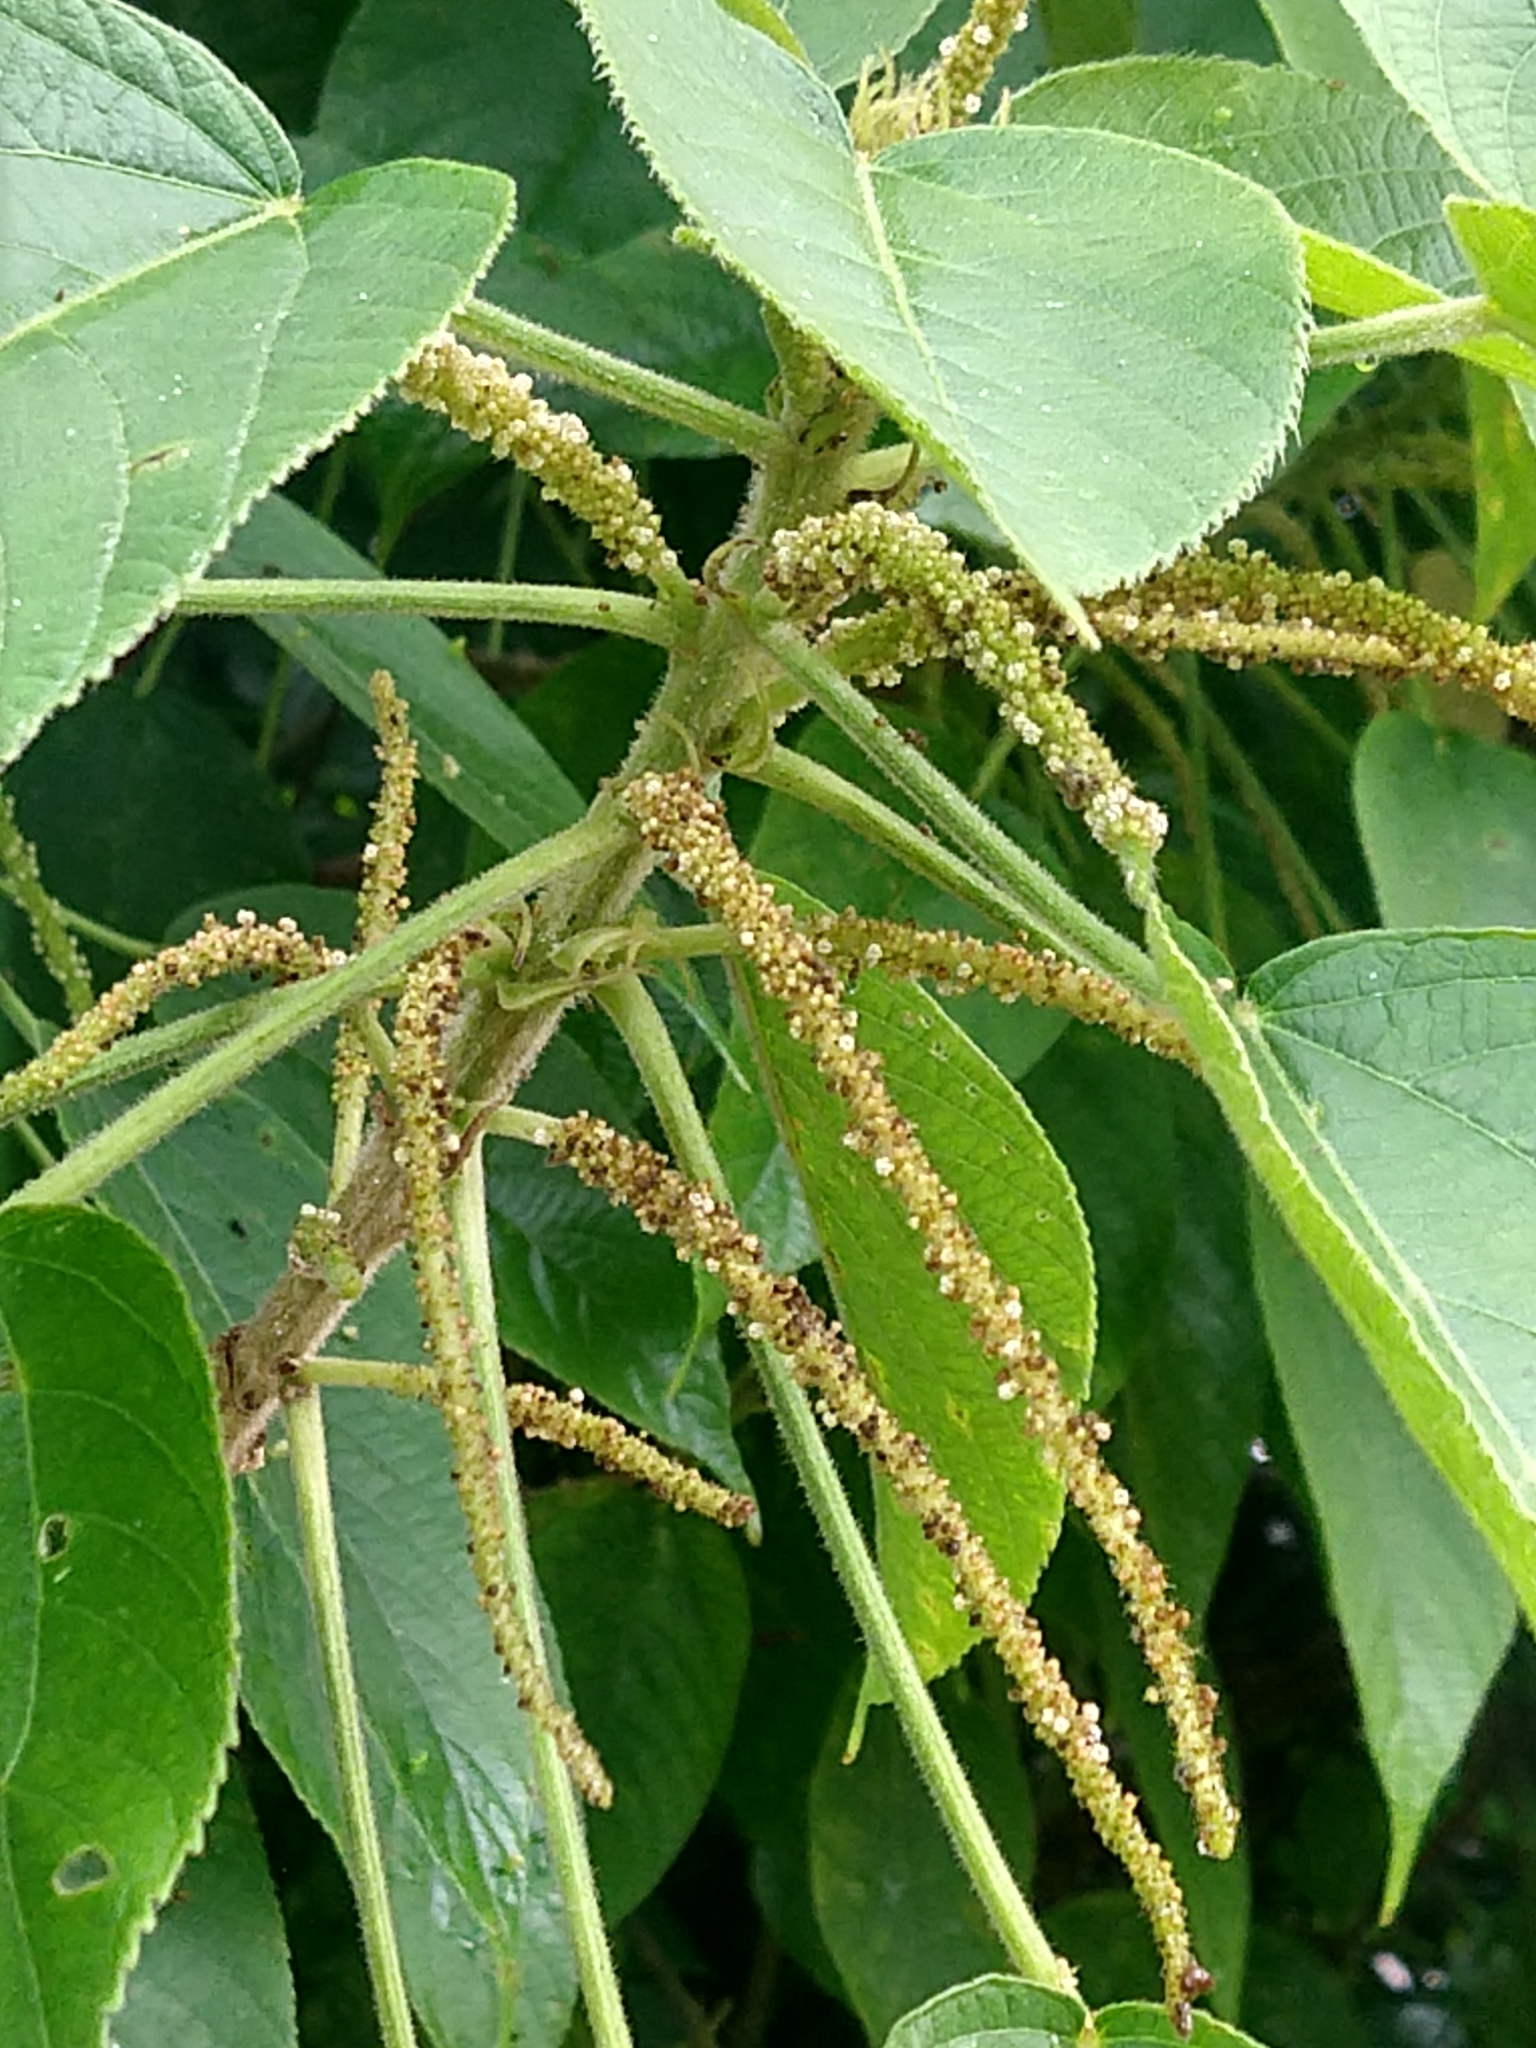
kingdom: Plantae
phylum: Tracheophyta
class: Magnoliopsida
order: Malpighiales
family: Euphorbiaceae
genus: Acalypha
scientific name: Acalypha macrostachya
